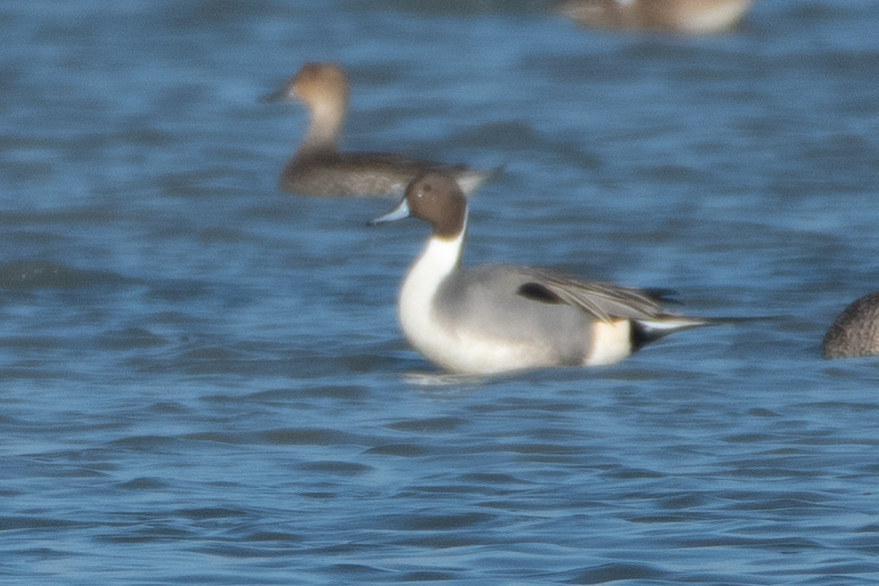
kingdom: Animalia
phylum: Chordata
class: Aves
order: Anseriformes
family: Anatidae
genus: Anas
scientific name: Anas acuta
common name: Northern pintail
